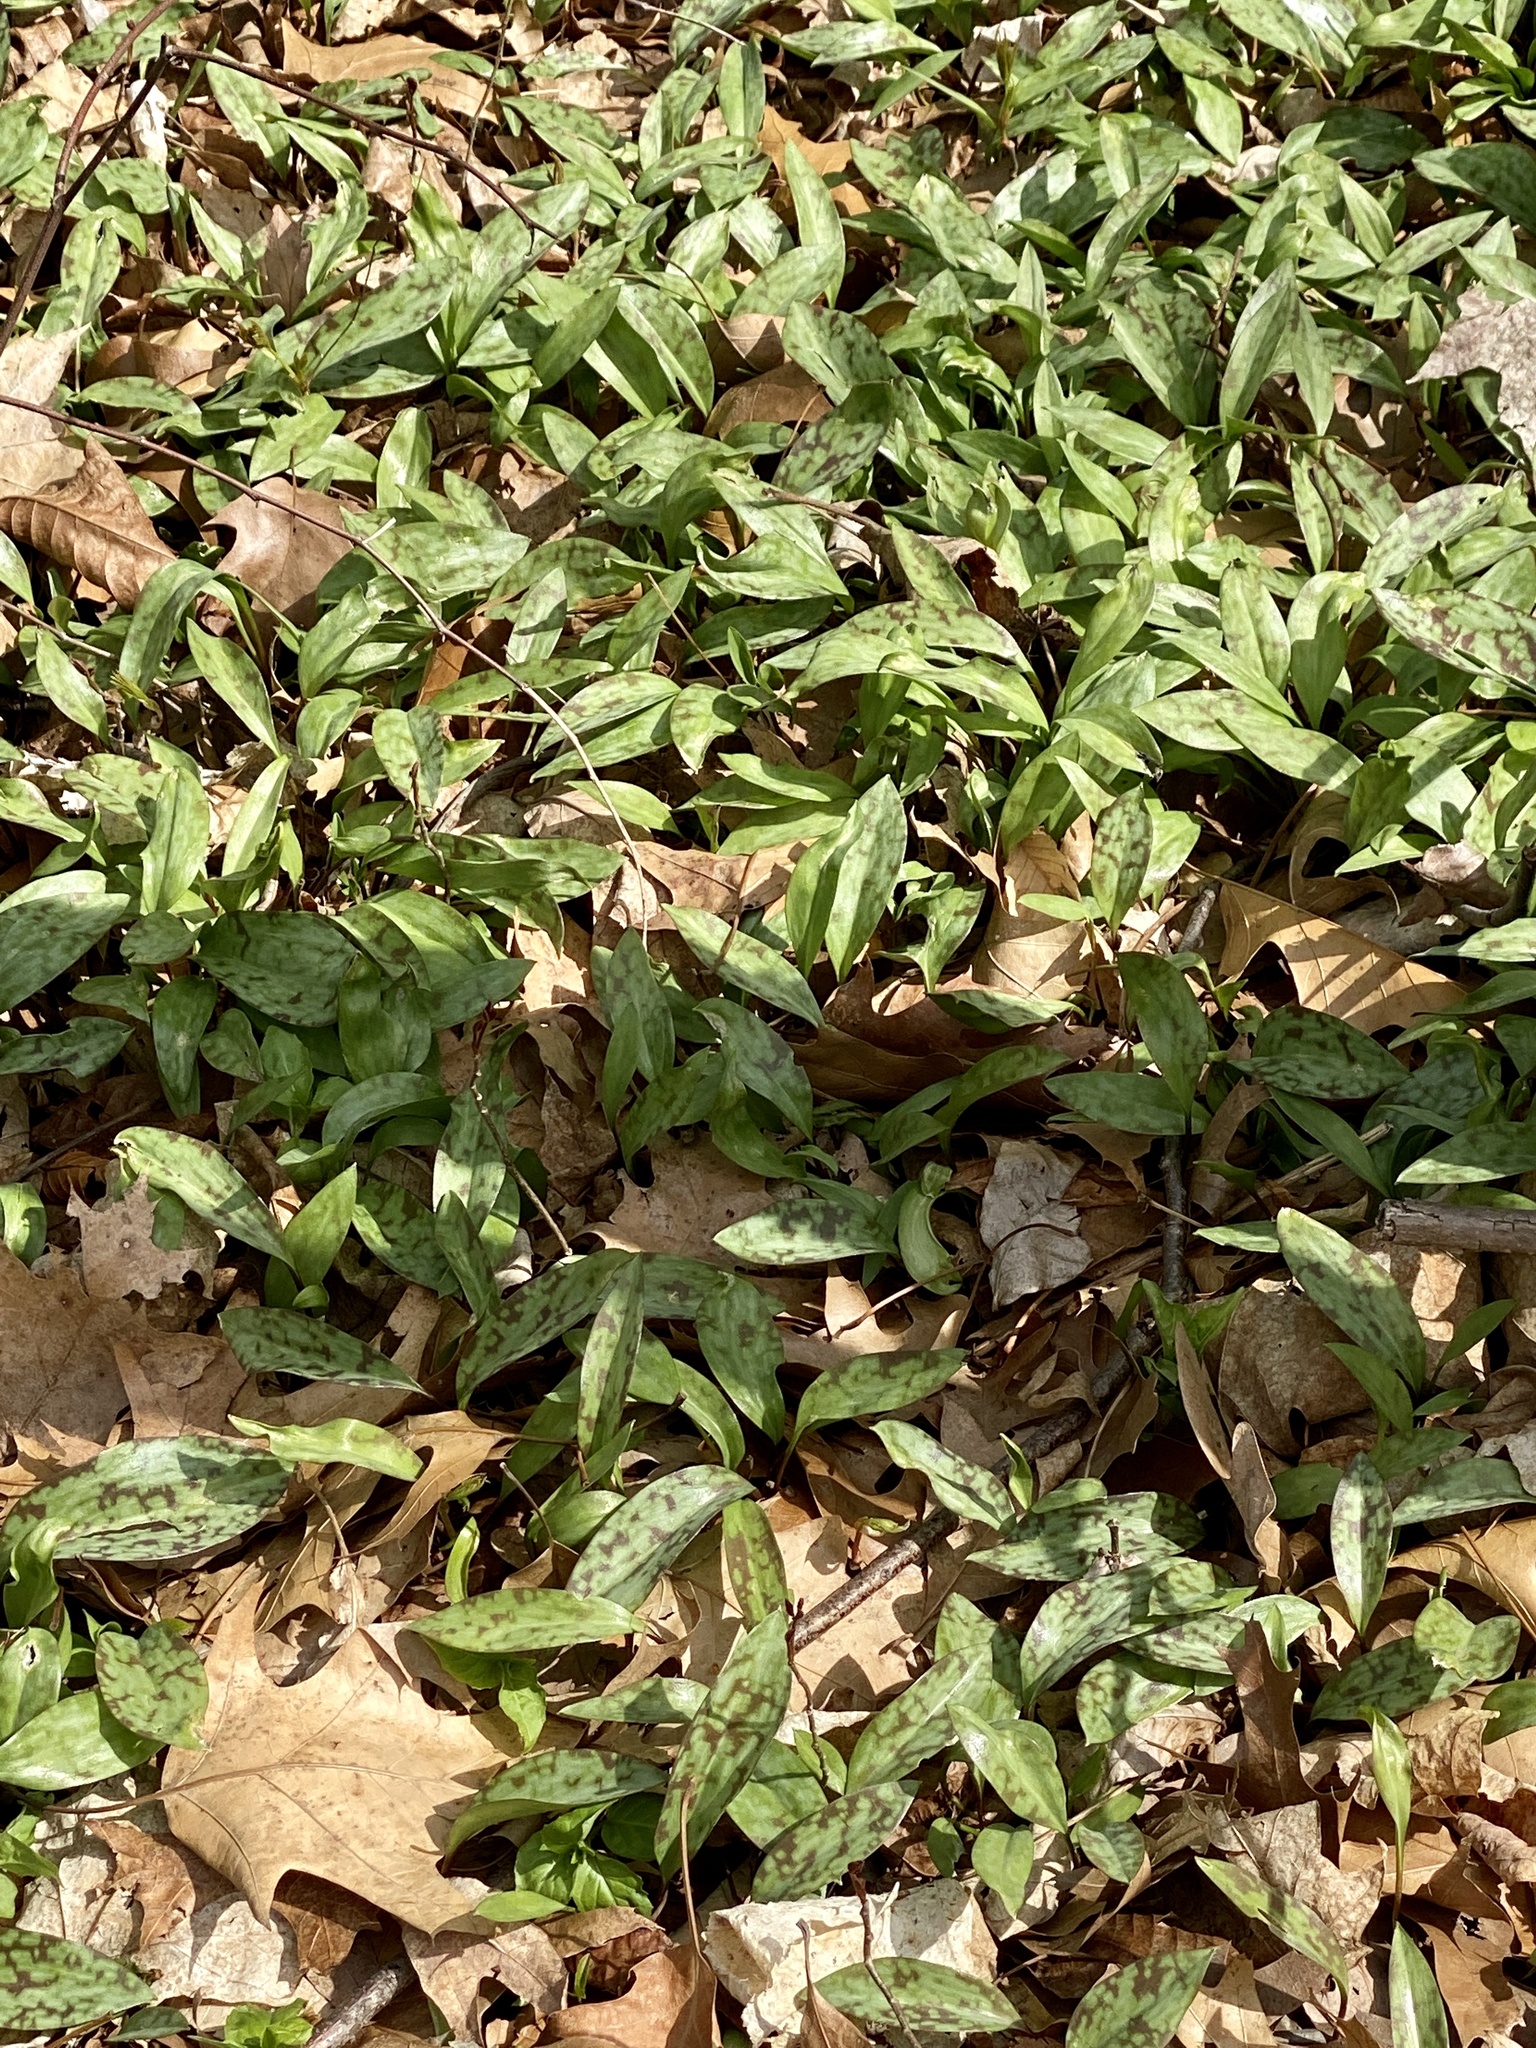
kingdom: Plantae
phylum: Tracheophyta
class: Liliopsida
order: Liliales
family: Liliaceae
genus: Erythronium
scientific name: Erythronium americanum
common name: Yellow adder's-tongue
